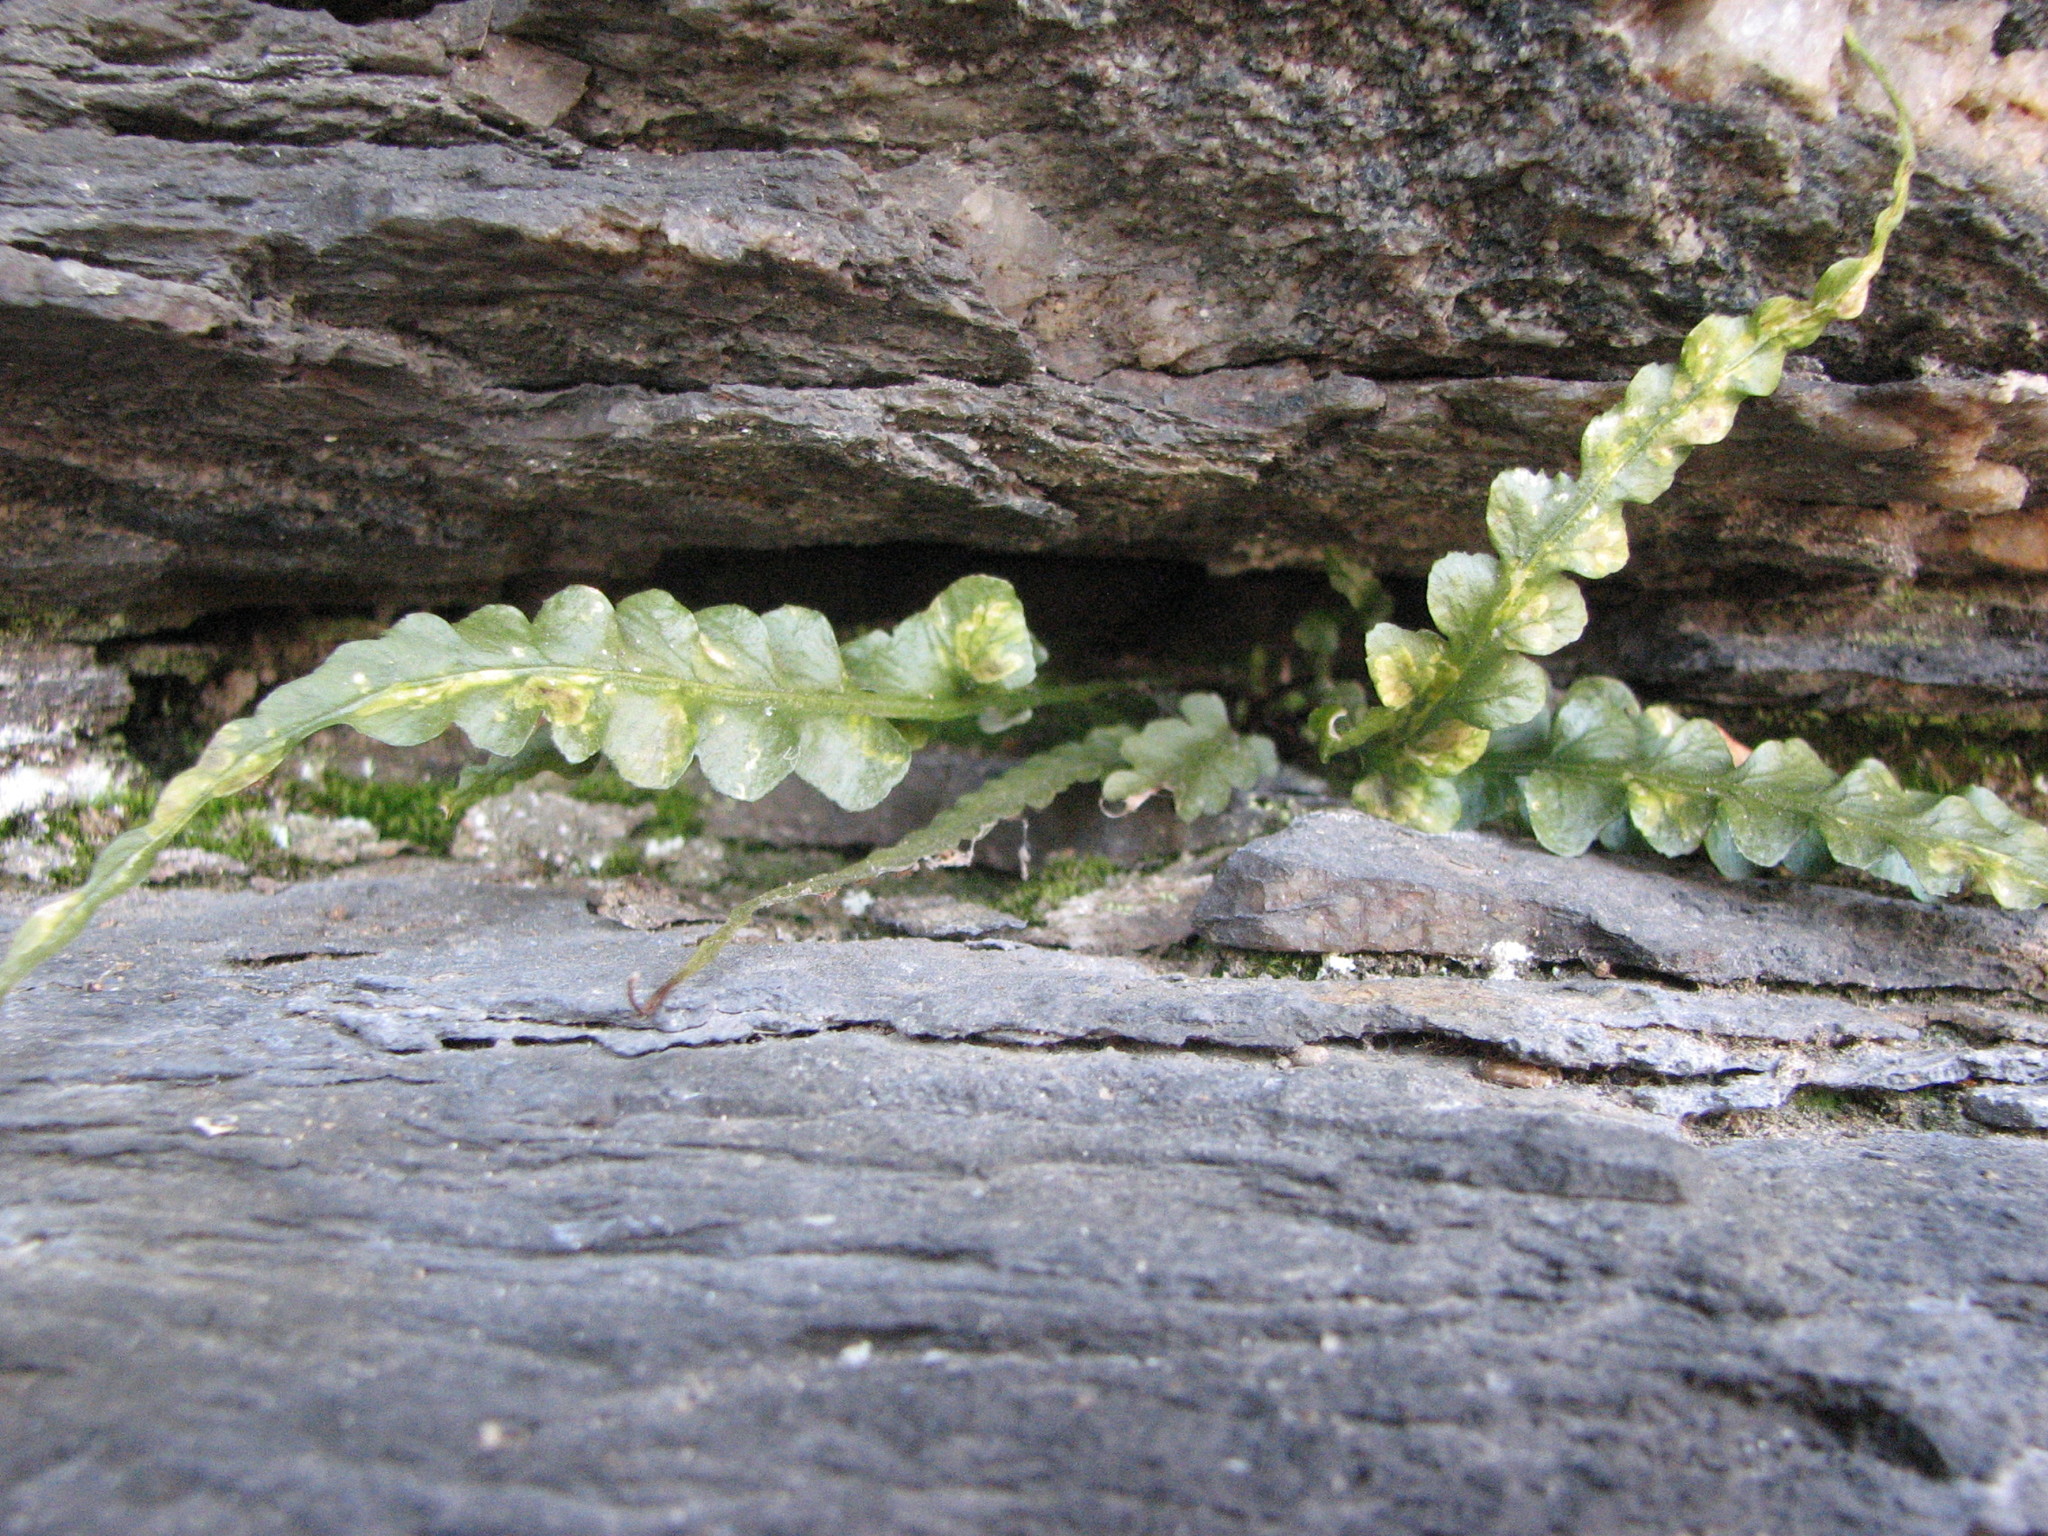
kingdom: Plantae
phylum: Tracheophyta
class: Polypodiopsida
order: Polypodiales
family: Aspleniaceae
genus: Asplenium
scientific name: Asplenium pinnatifidum
